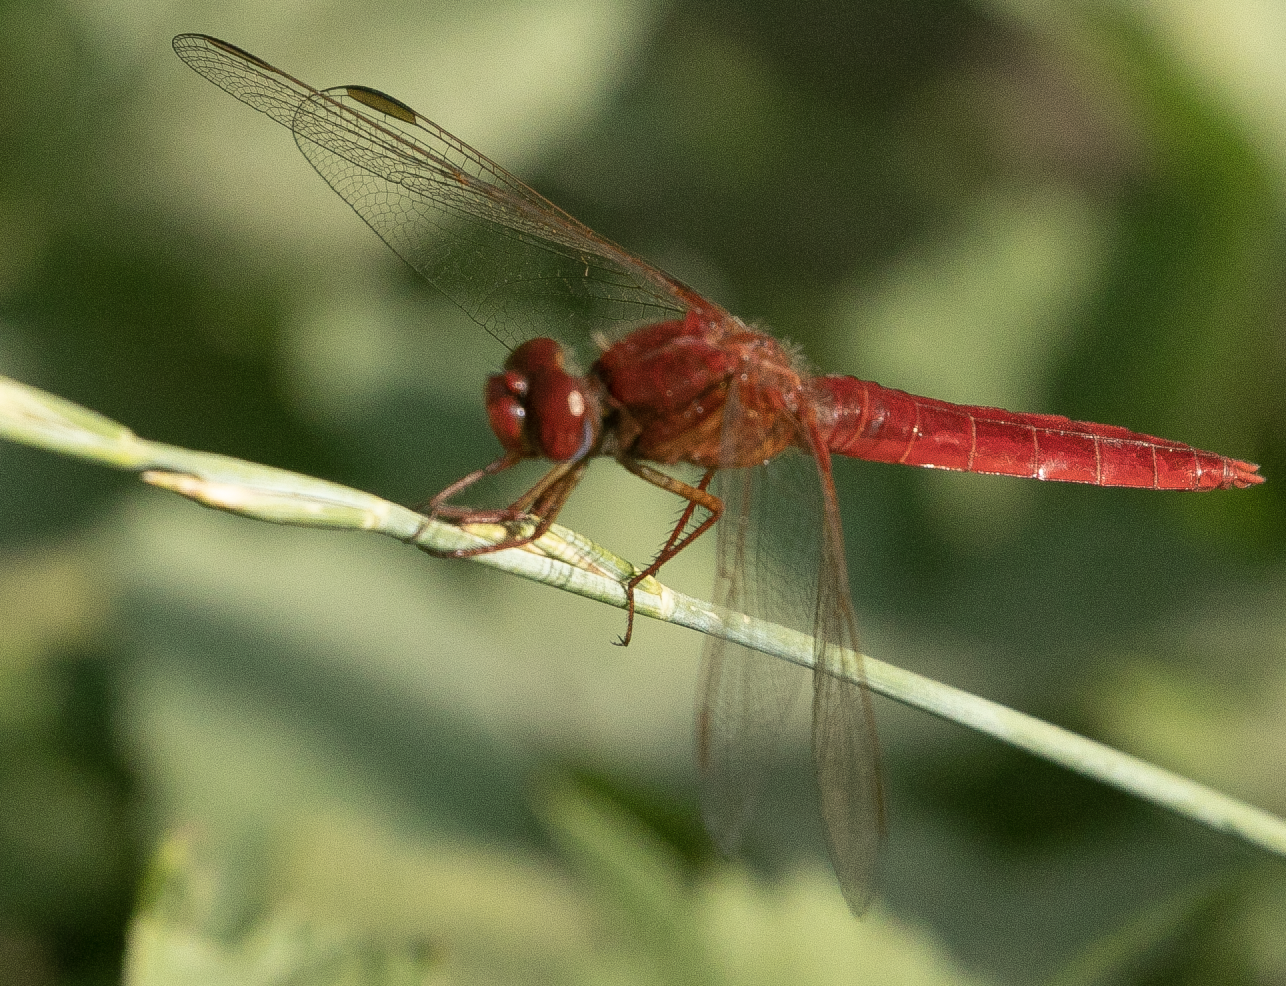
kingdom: Animalia
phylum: Arthropoda
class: Insecta
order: Odonata
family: Libellulidae
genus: Crocothemis
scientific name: Crocothemis erythraea
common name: Scarlet dragonfly
